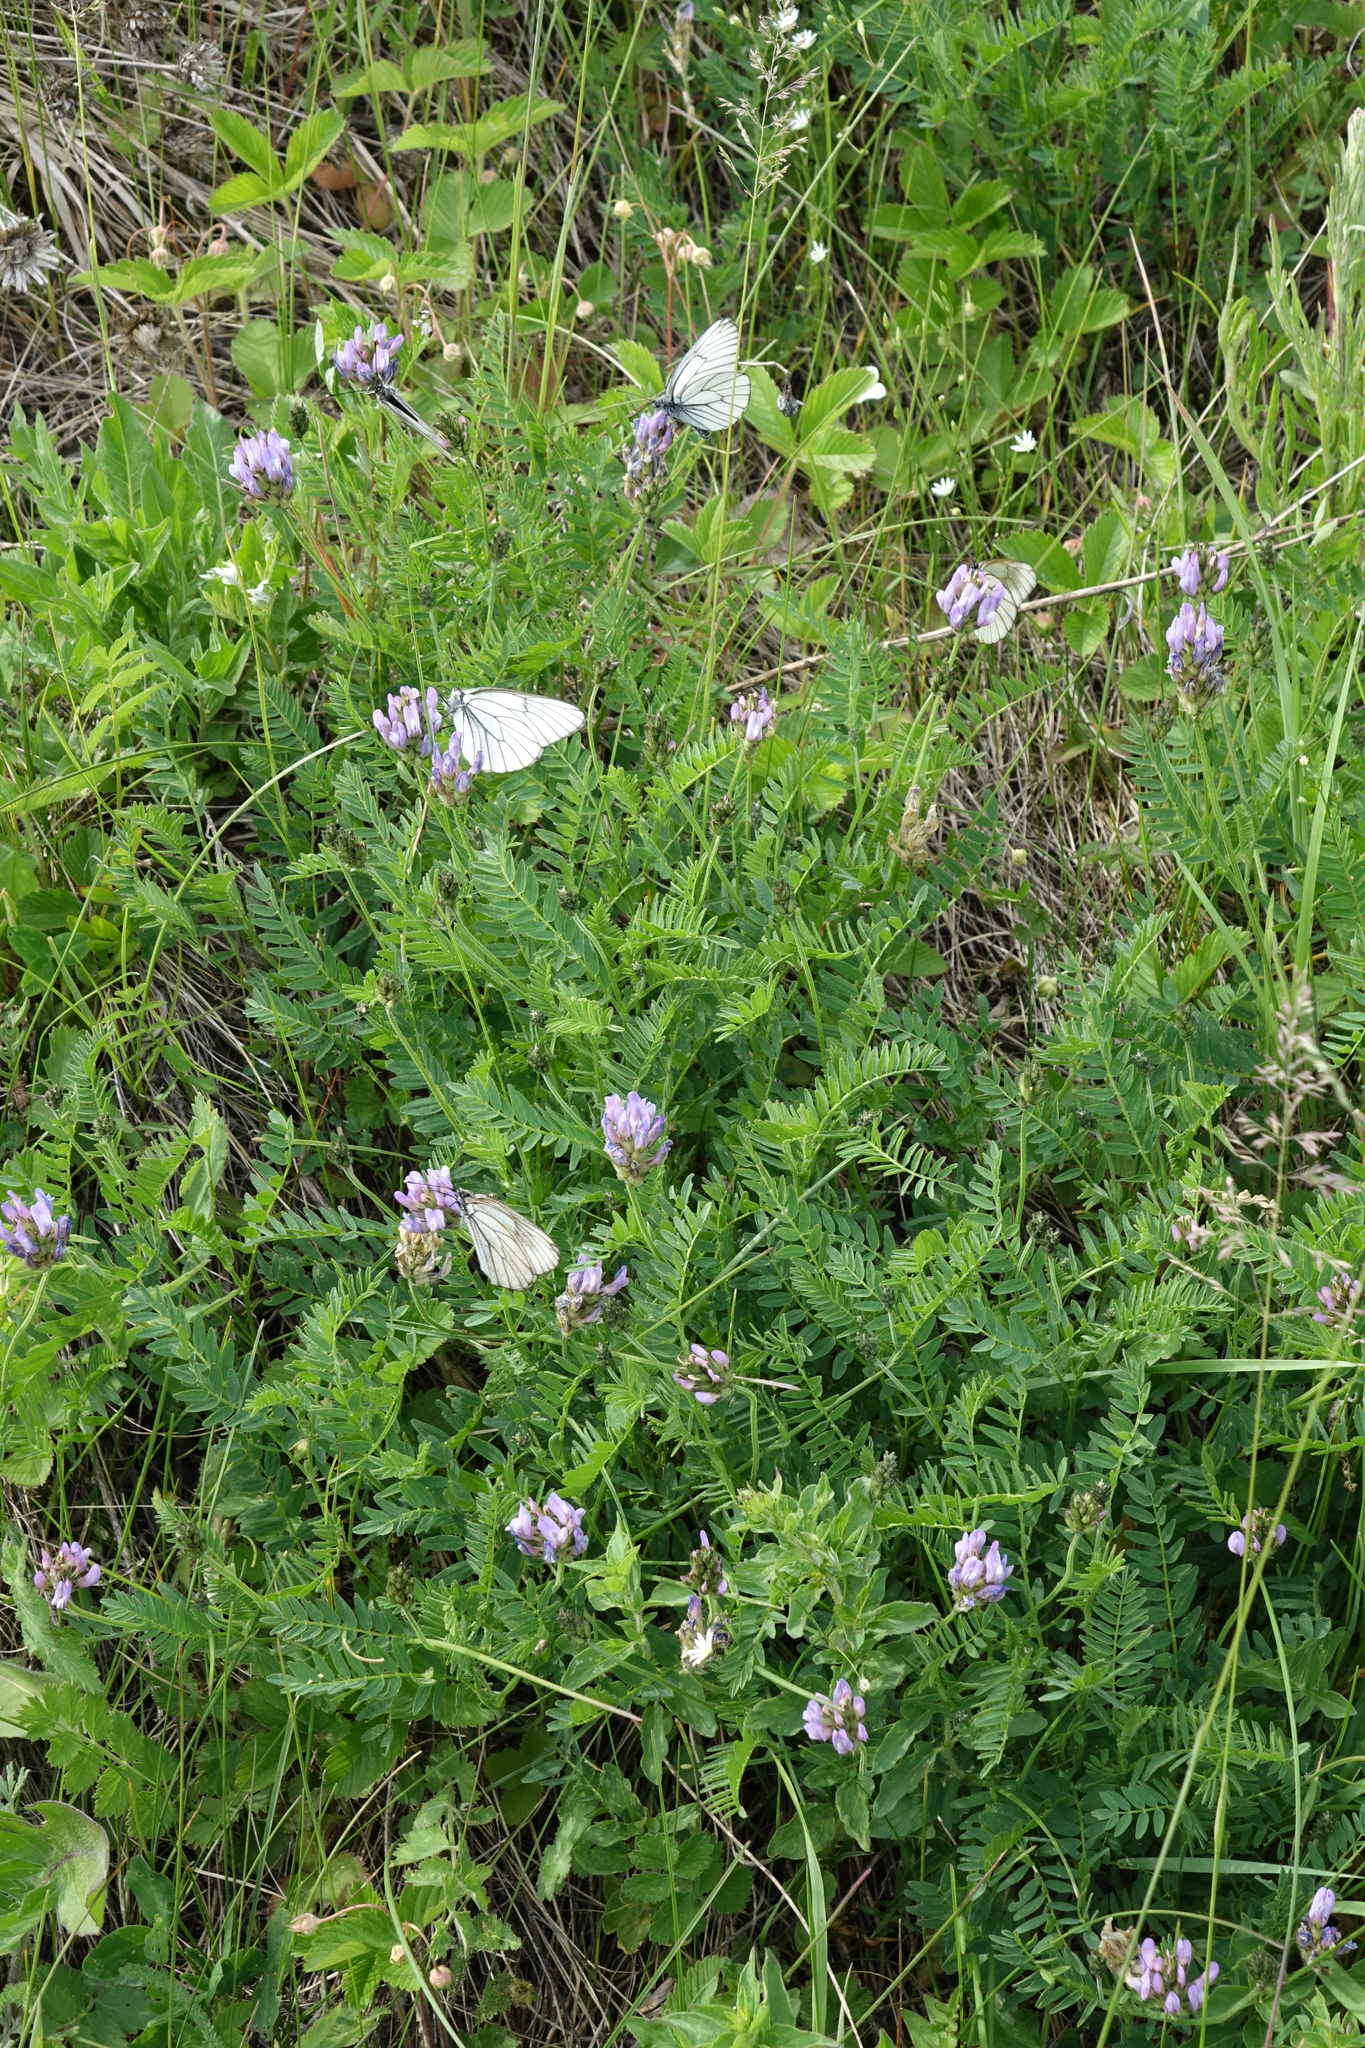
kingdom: Plantae
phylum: Tracheophyta
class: Magnoliopsida
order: Fabales
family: Fabaceae
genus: Astragalus
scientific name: Astragalus danicus
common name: Purple milk-vetch
